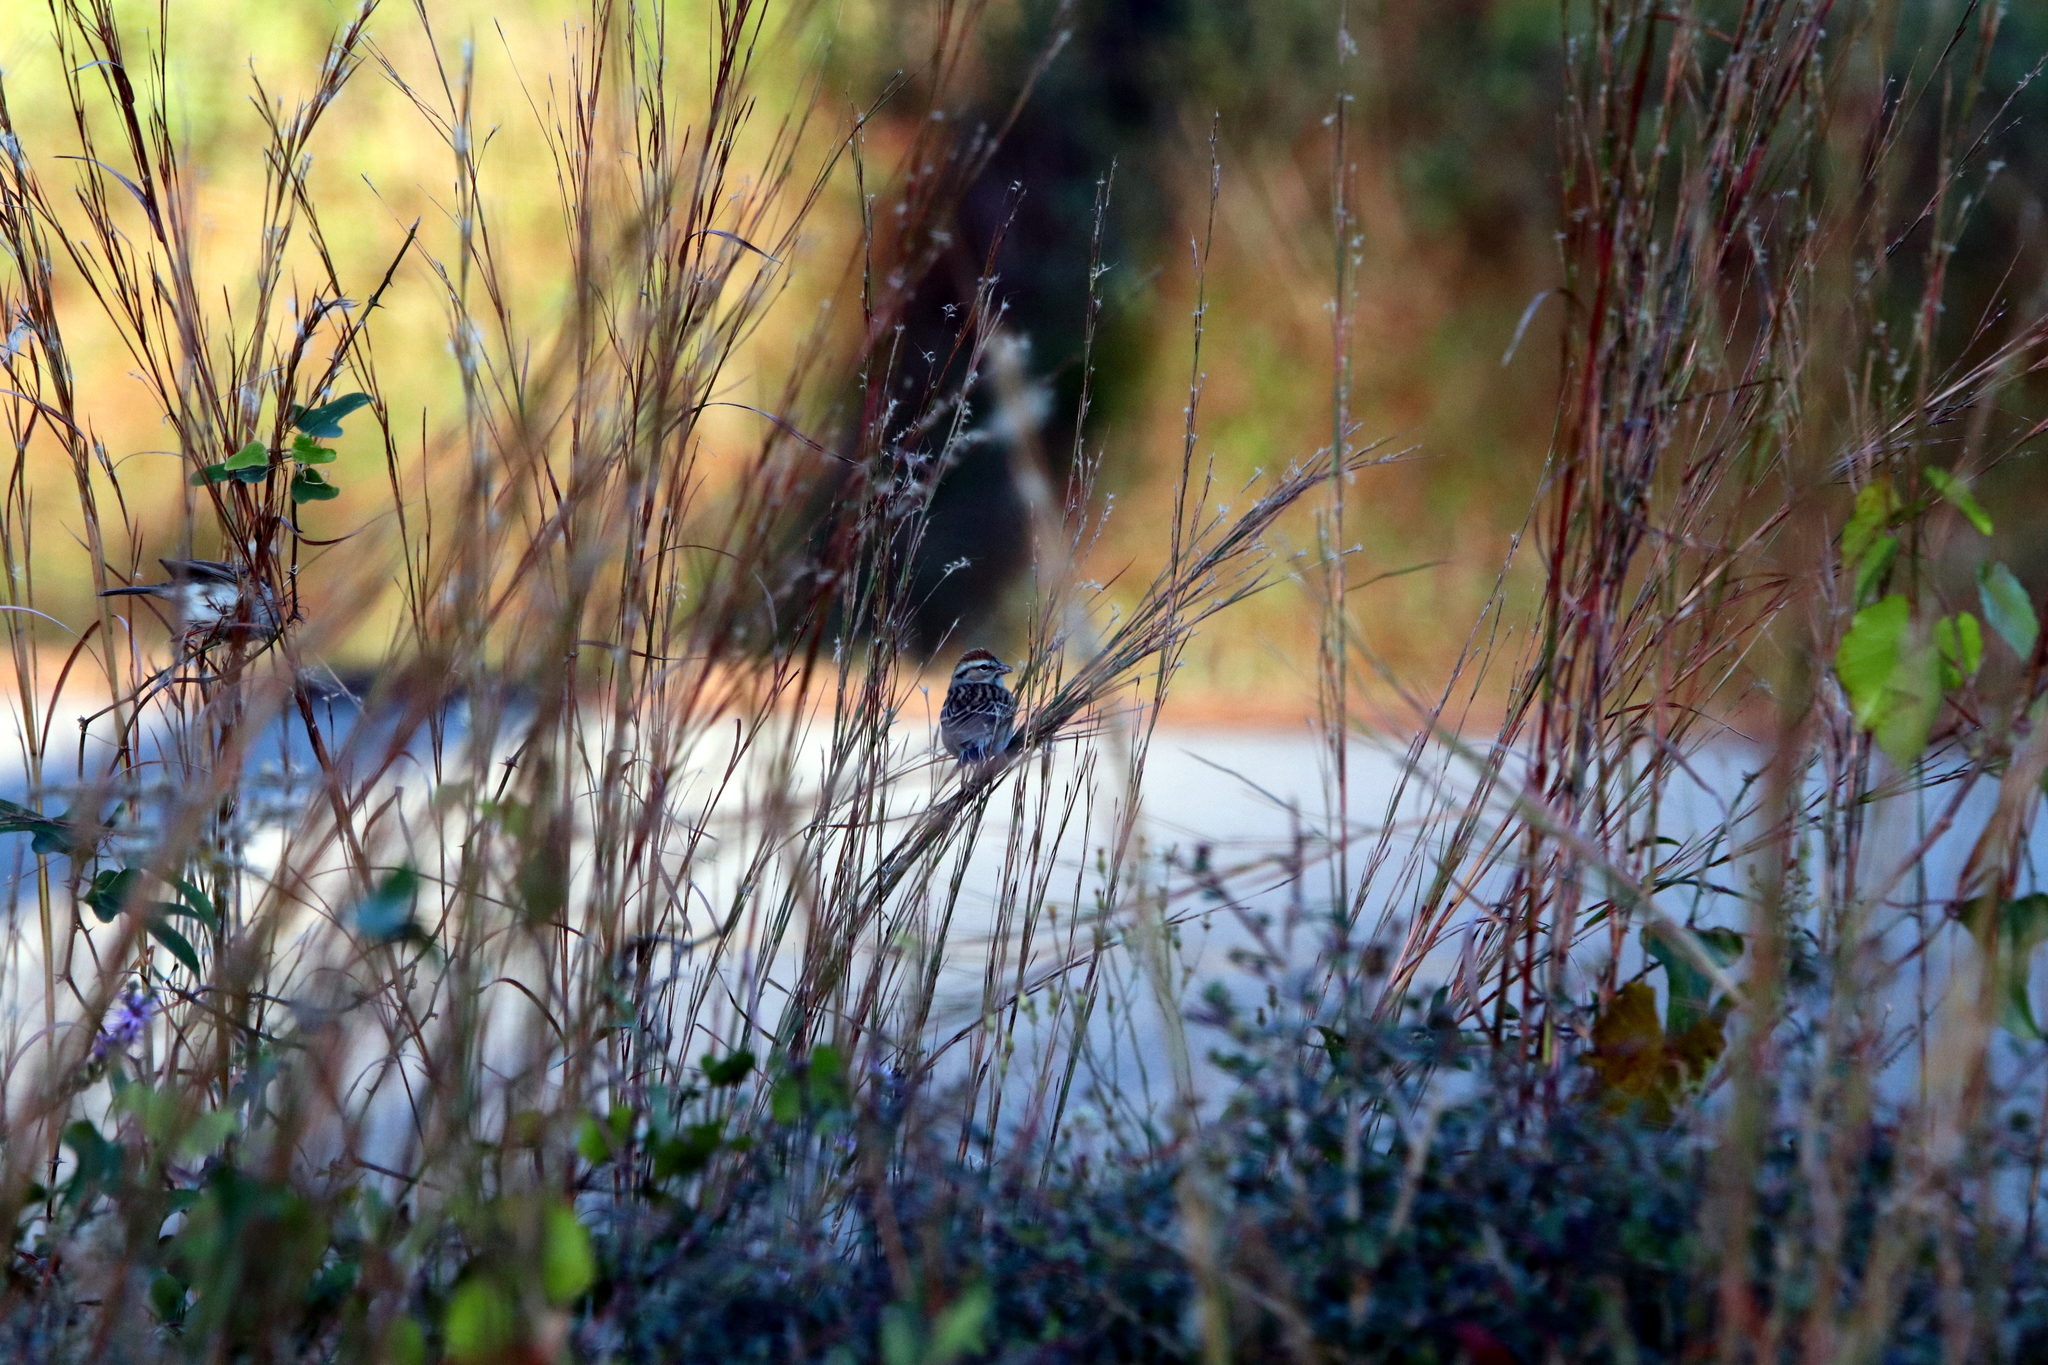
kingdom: Animalia
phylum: Chordata
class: Aves
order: Passeriformes
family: Passerellidae
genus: Melospiza
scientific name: Melospiza georgiana
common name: Swamp sparrow
